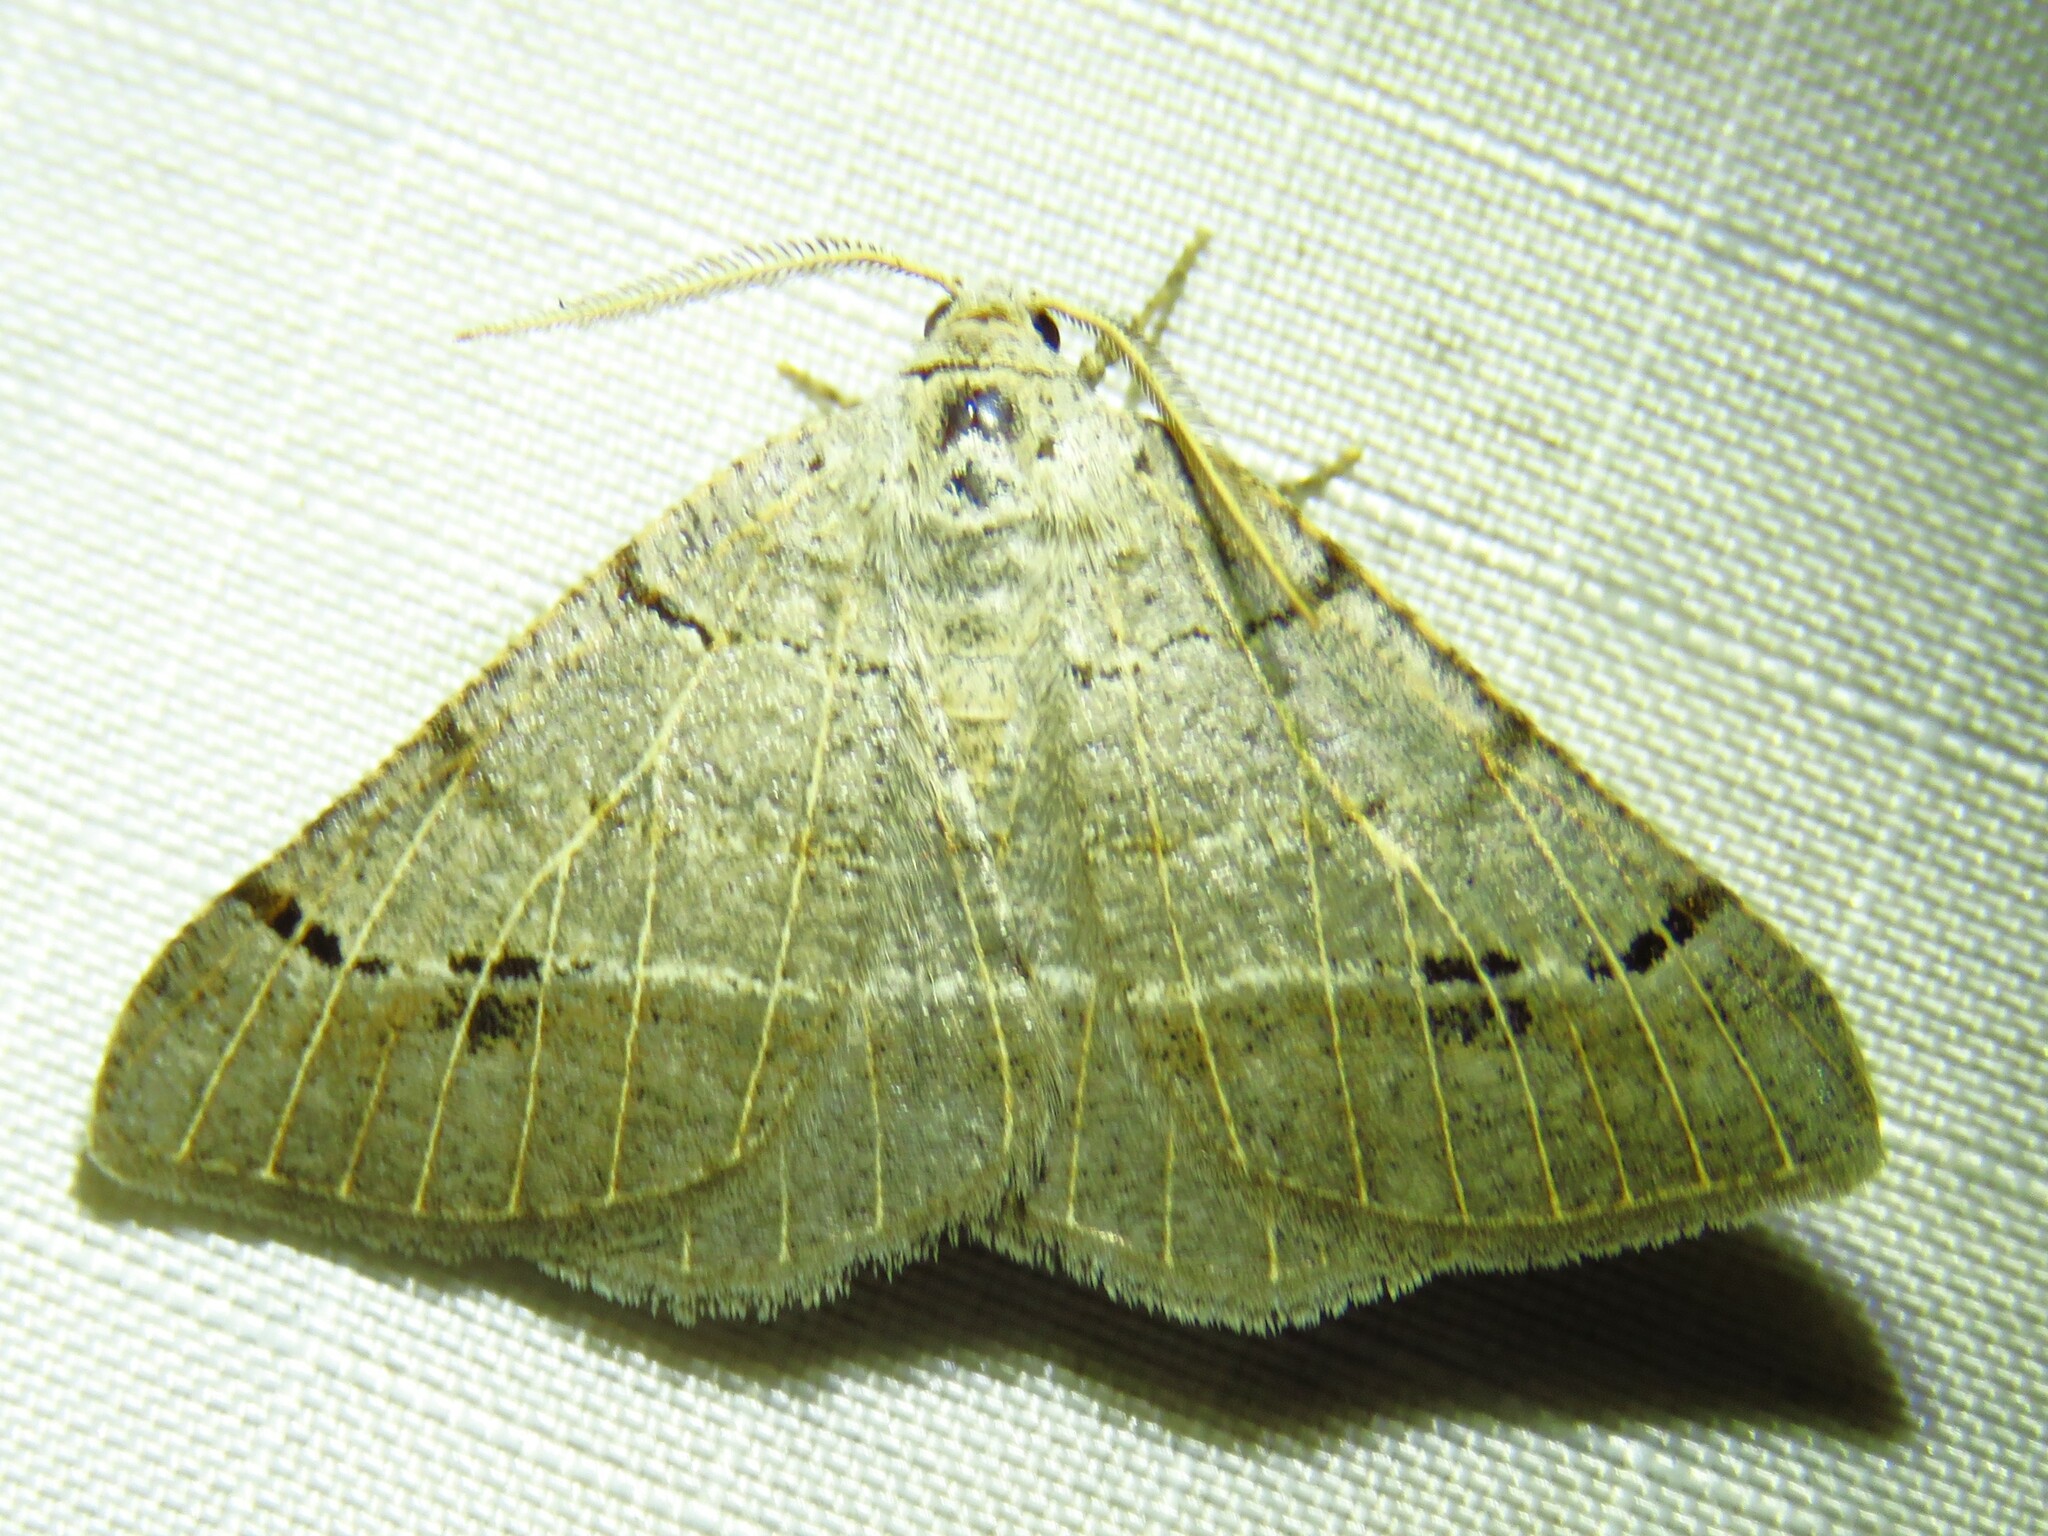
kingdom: Animalia
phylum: Arthropoda
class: Insecta
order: Lepidoptera
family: Geometridae
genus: Isturgia
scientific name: Isturgia dislocaria
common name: Pale-viened enconista
